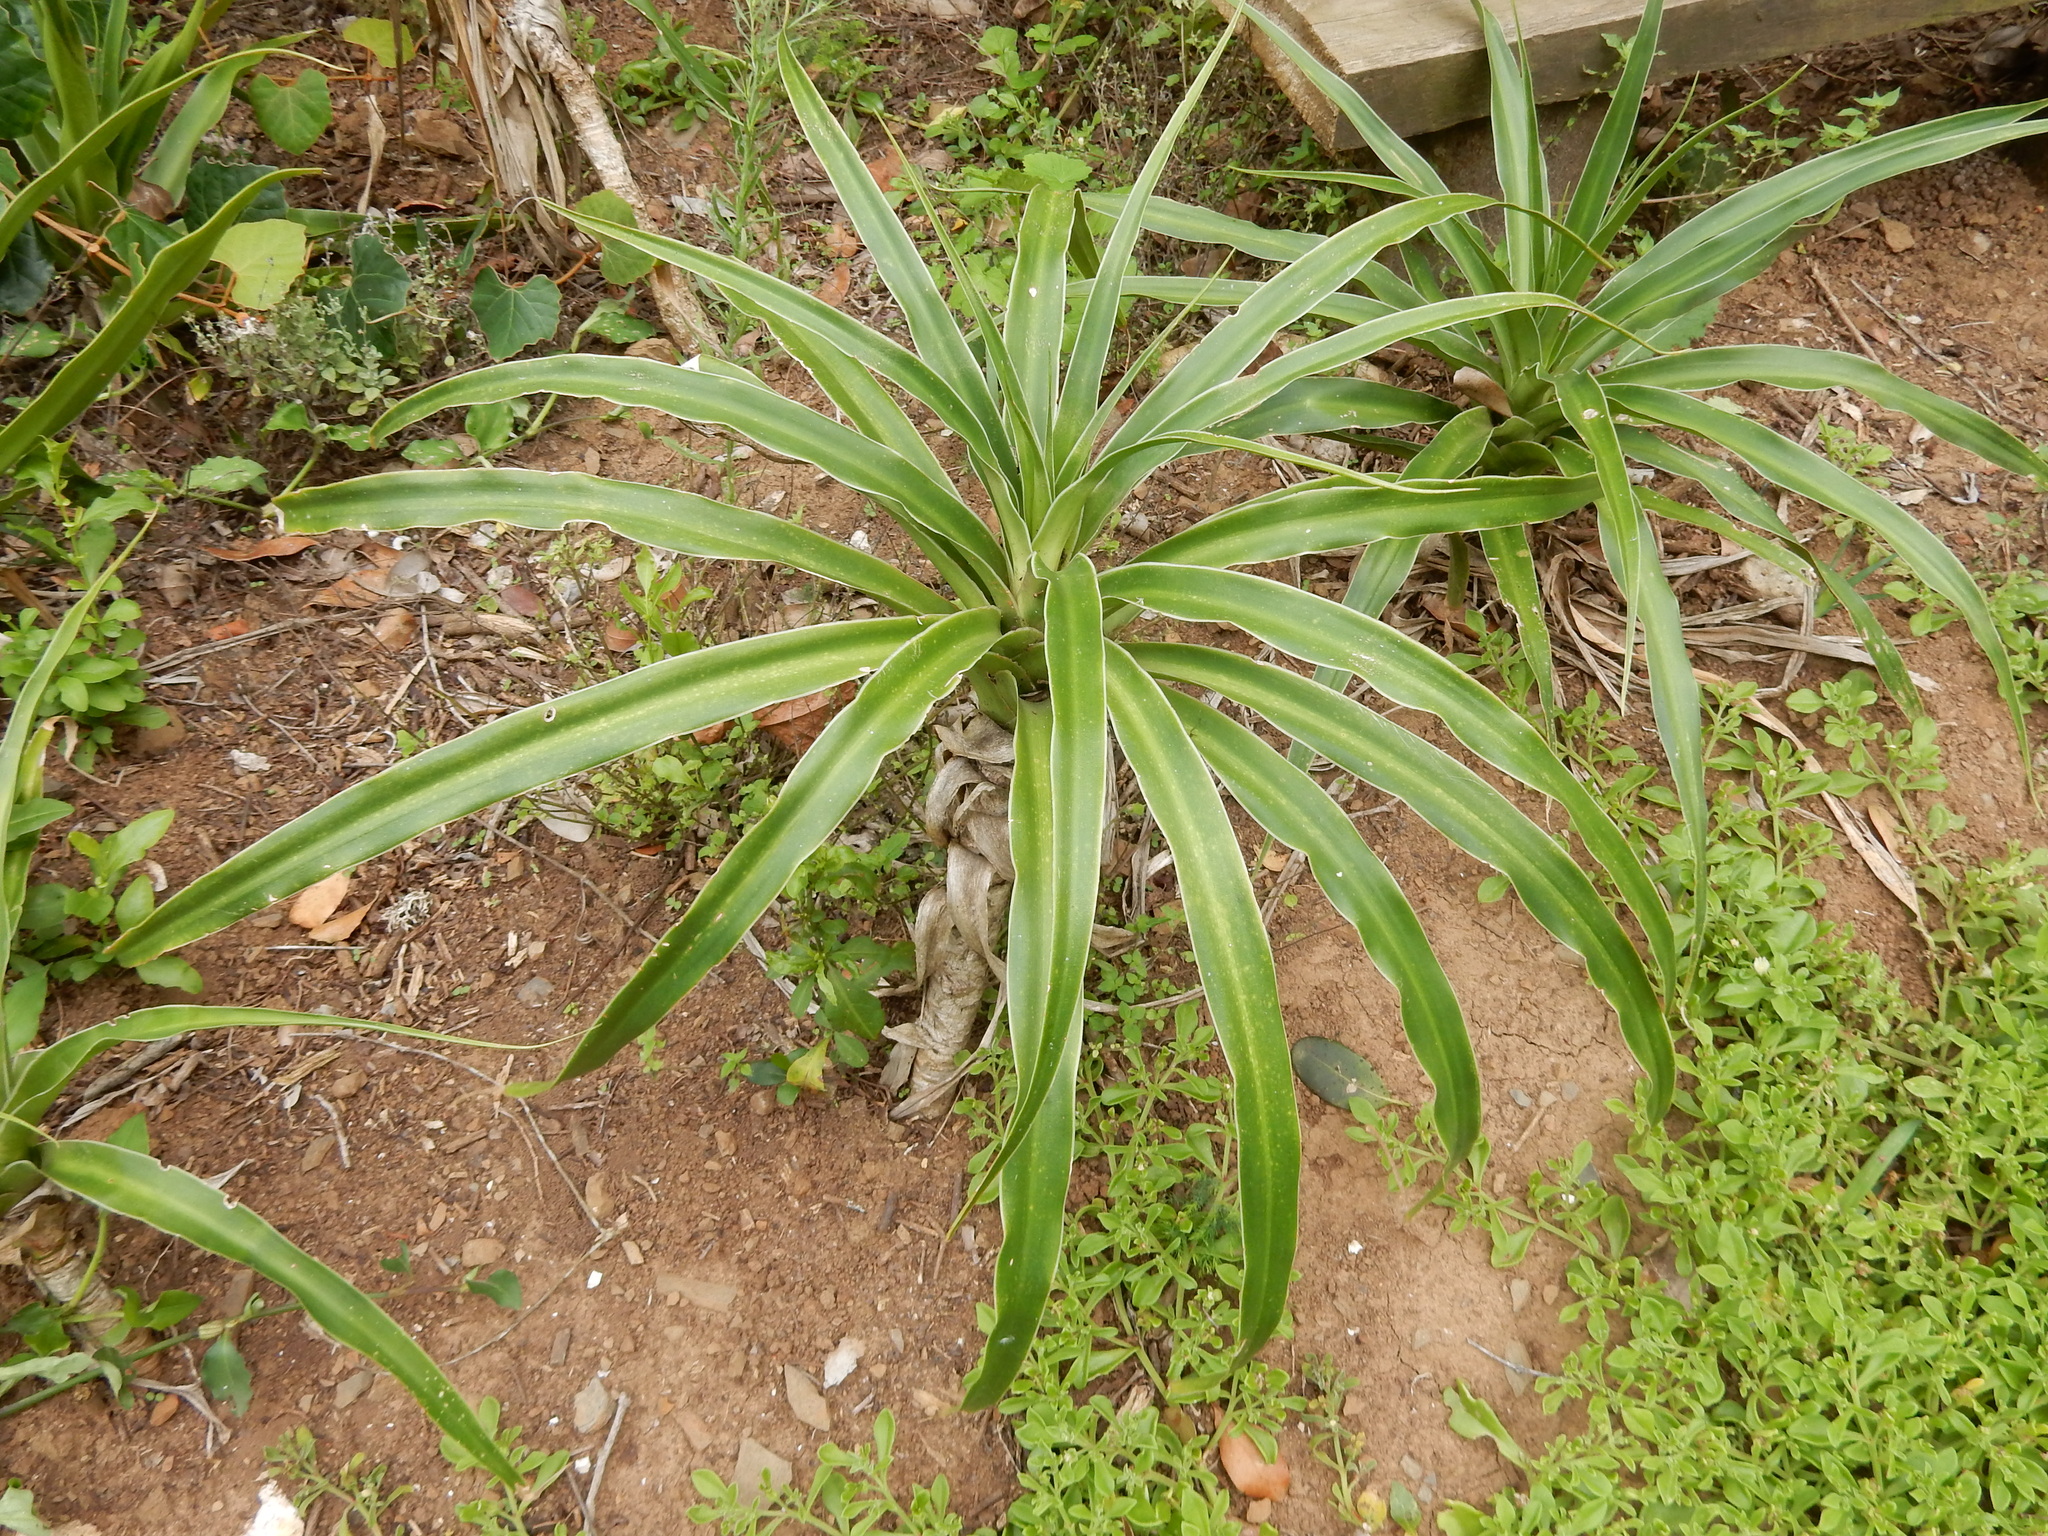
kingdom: Plantae
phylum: Tracheophyta
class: Liliopsida
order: Asparagales
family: Asparagaceae
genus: Dracaena
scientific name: Dracaena aletriformis
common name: Large-leaved dragon tree
